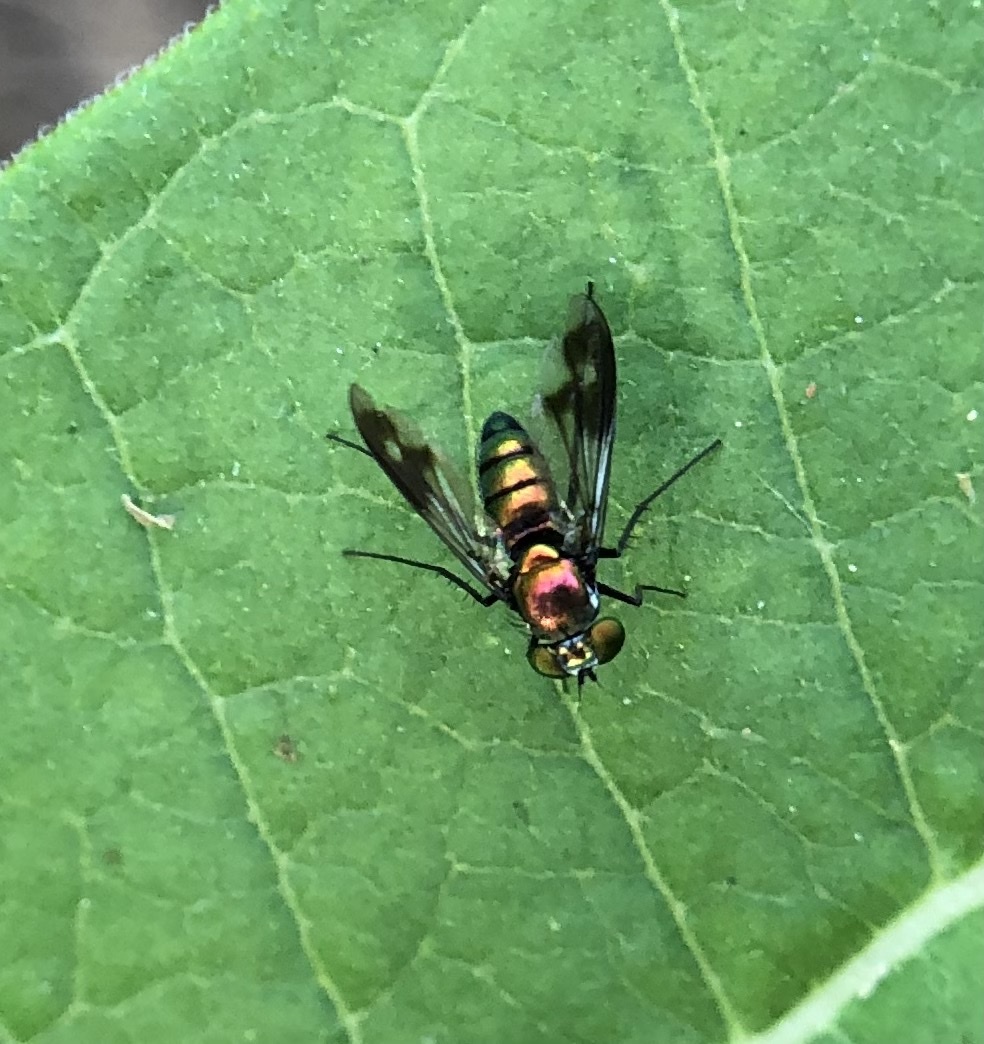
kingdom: Animalia
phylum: Arthropoda
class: Insecta
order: Diptera
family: Dolichopodidae
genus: Condylostylus
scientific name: Condylostylus patibulatus
